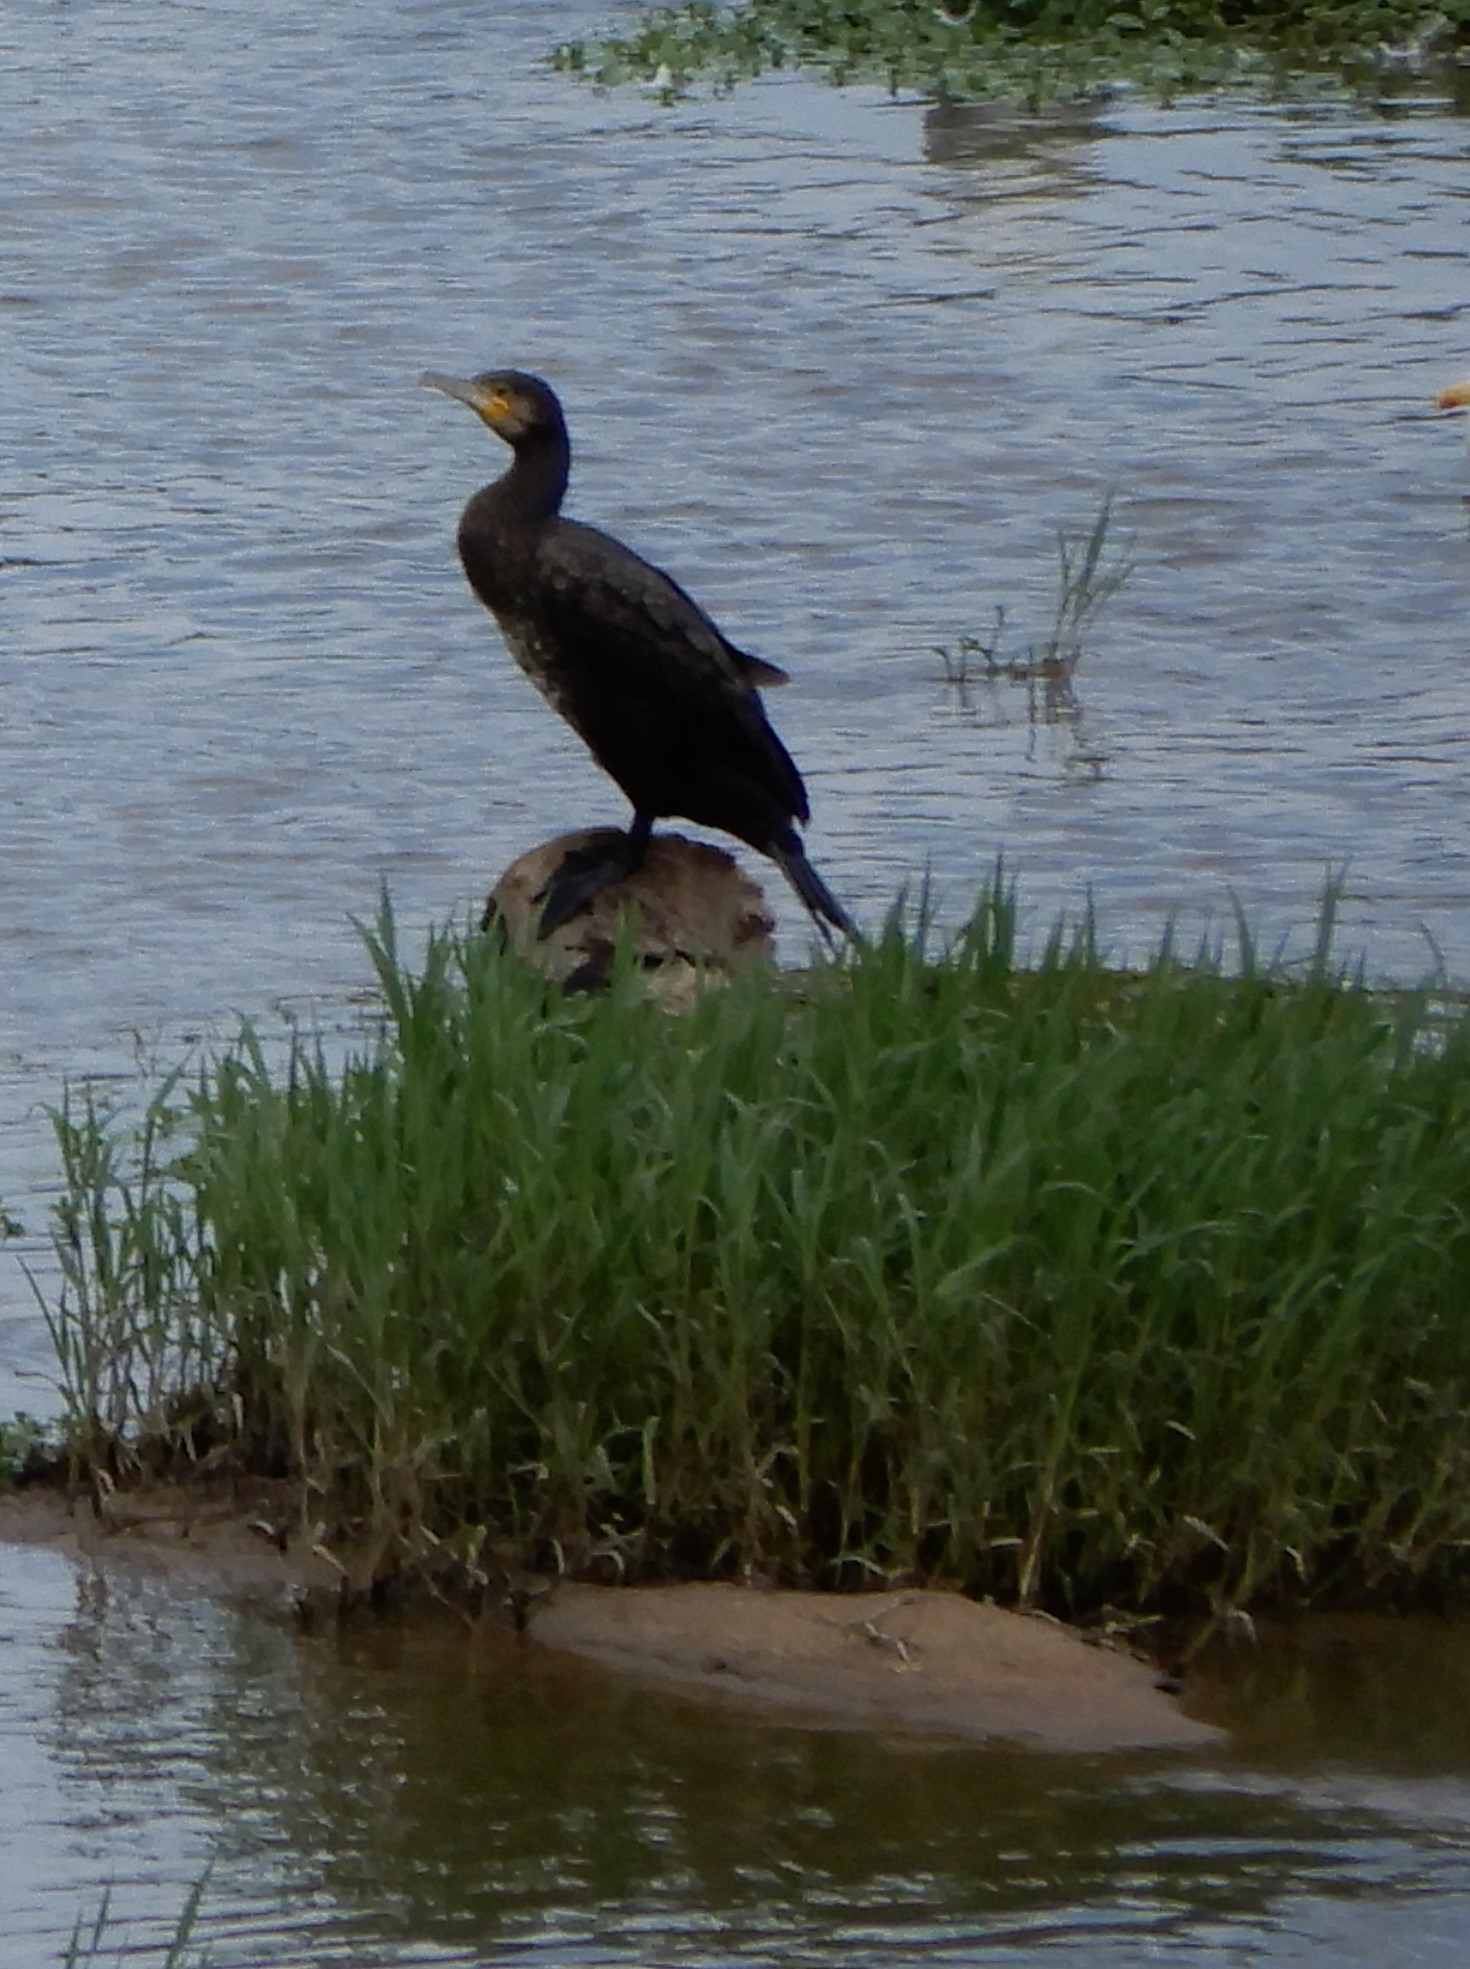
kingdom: Animalia
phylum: Chordata
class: Aves
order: Suliformes
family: Phalacrocoracidae
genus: Phalacrocorax
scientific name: Phalacrocorax carbo
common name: Great cormorant
